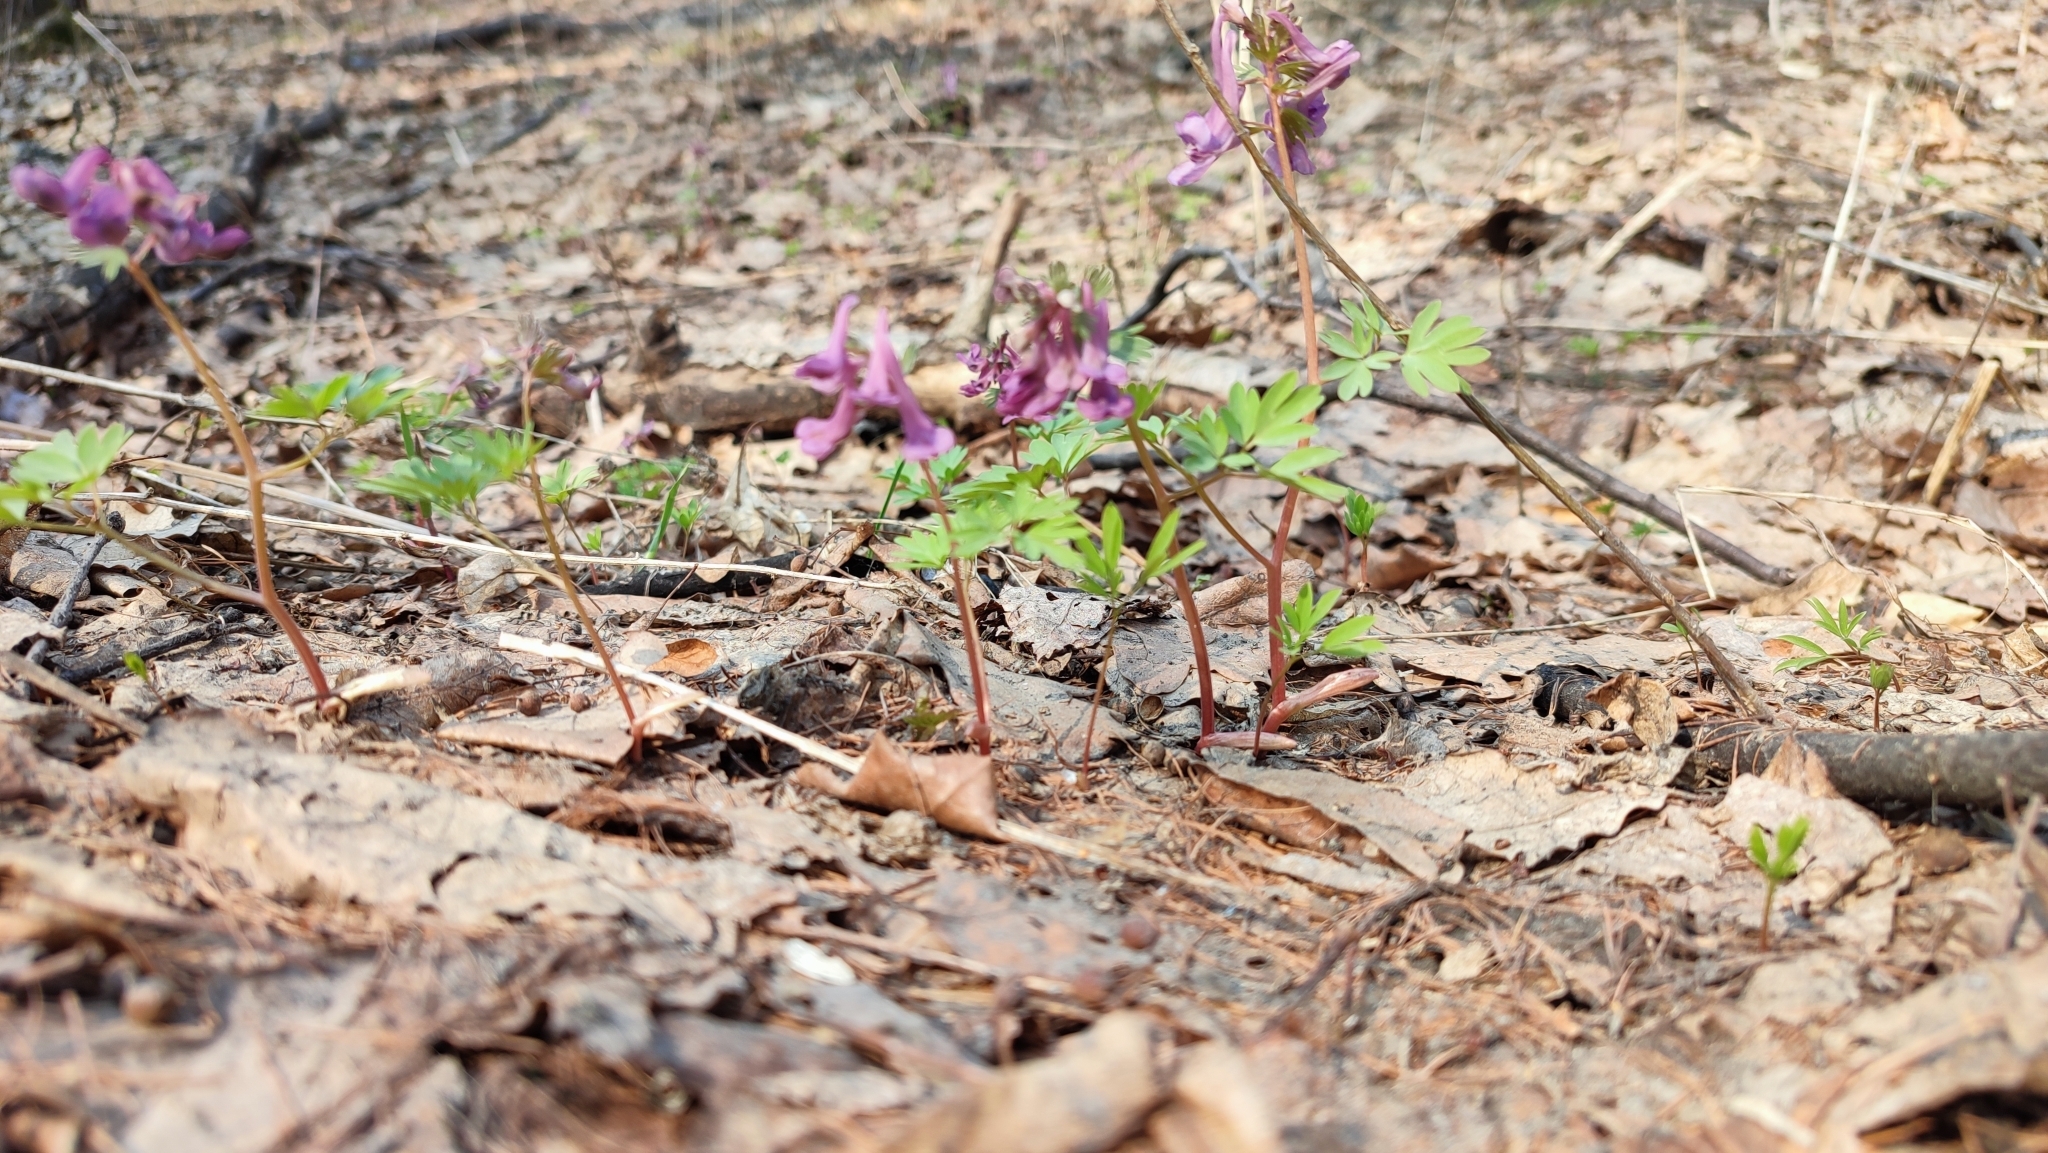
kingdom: Plantae
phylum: Tracheophyta
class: Magnoliopsida
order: Ranunculales
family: Papaveraceae
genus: Corydalis
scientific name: Corydalis solida
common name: Bird-in-a-bush
